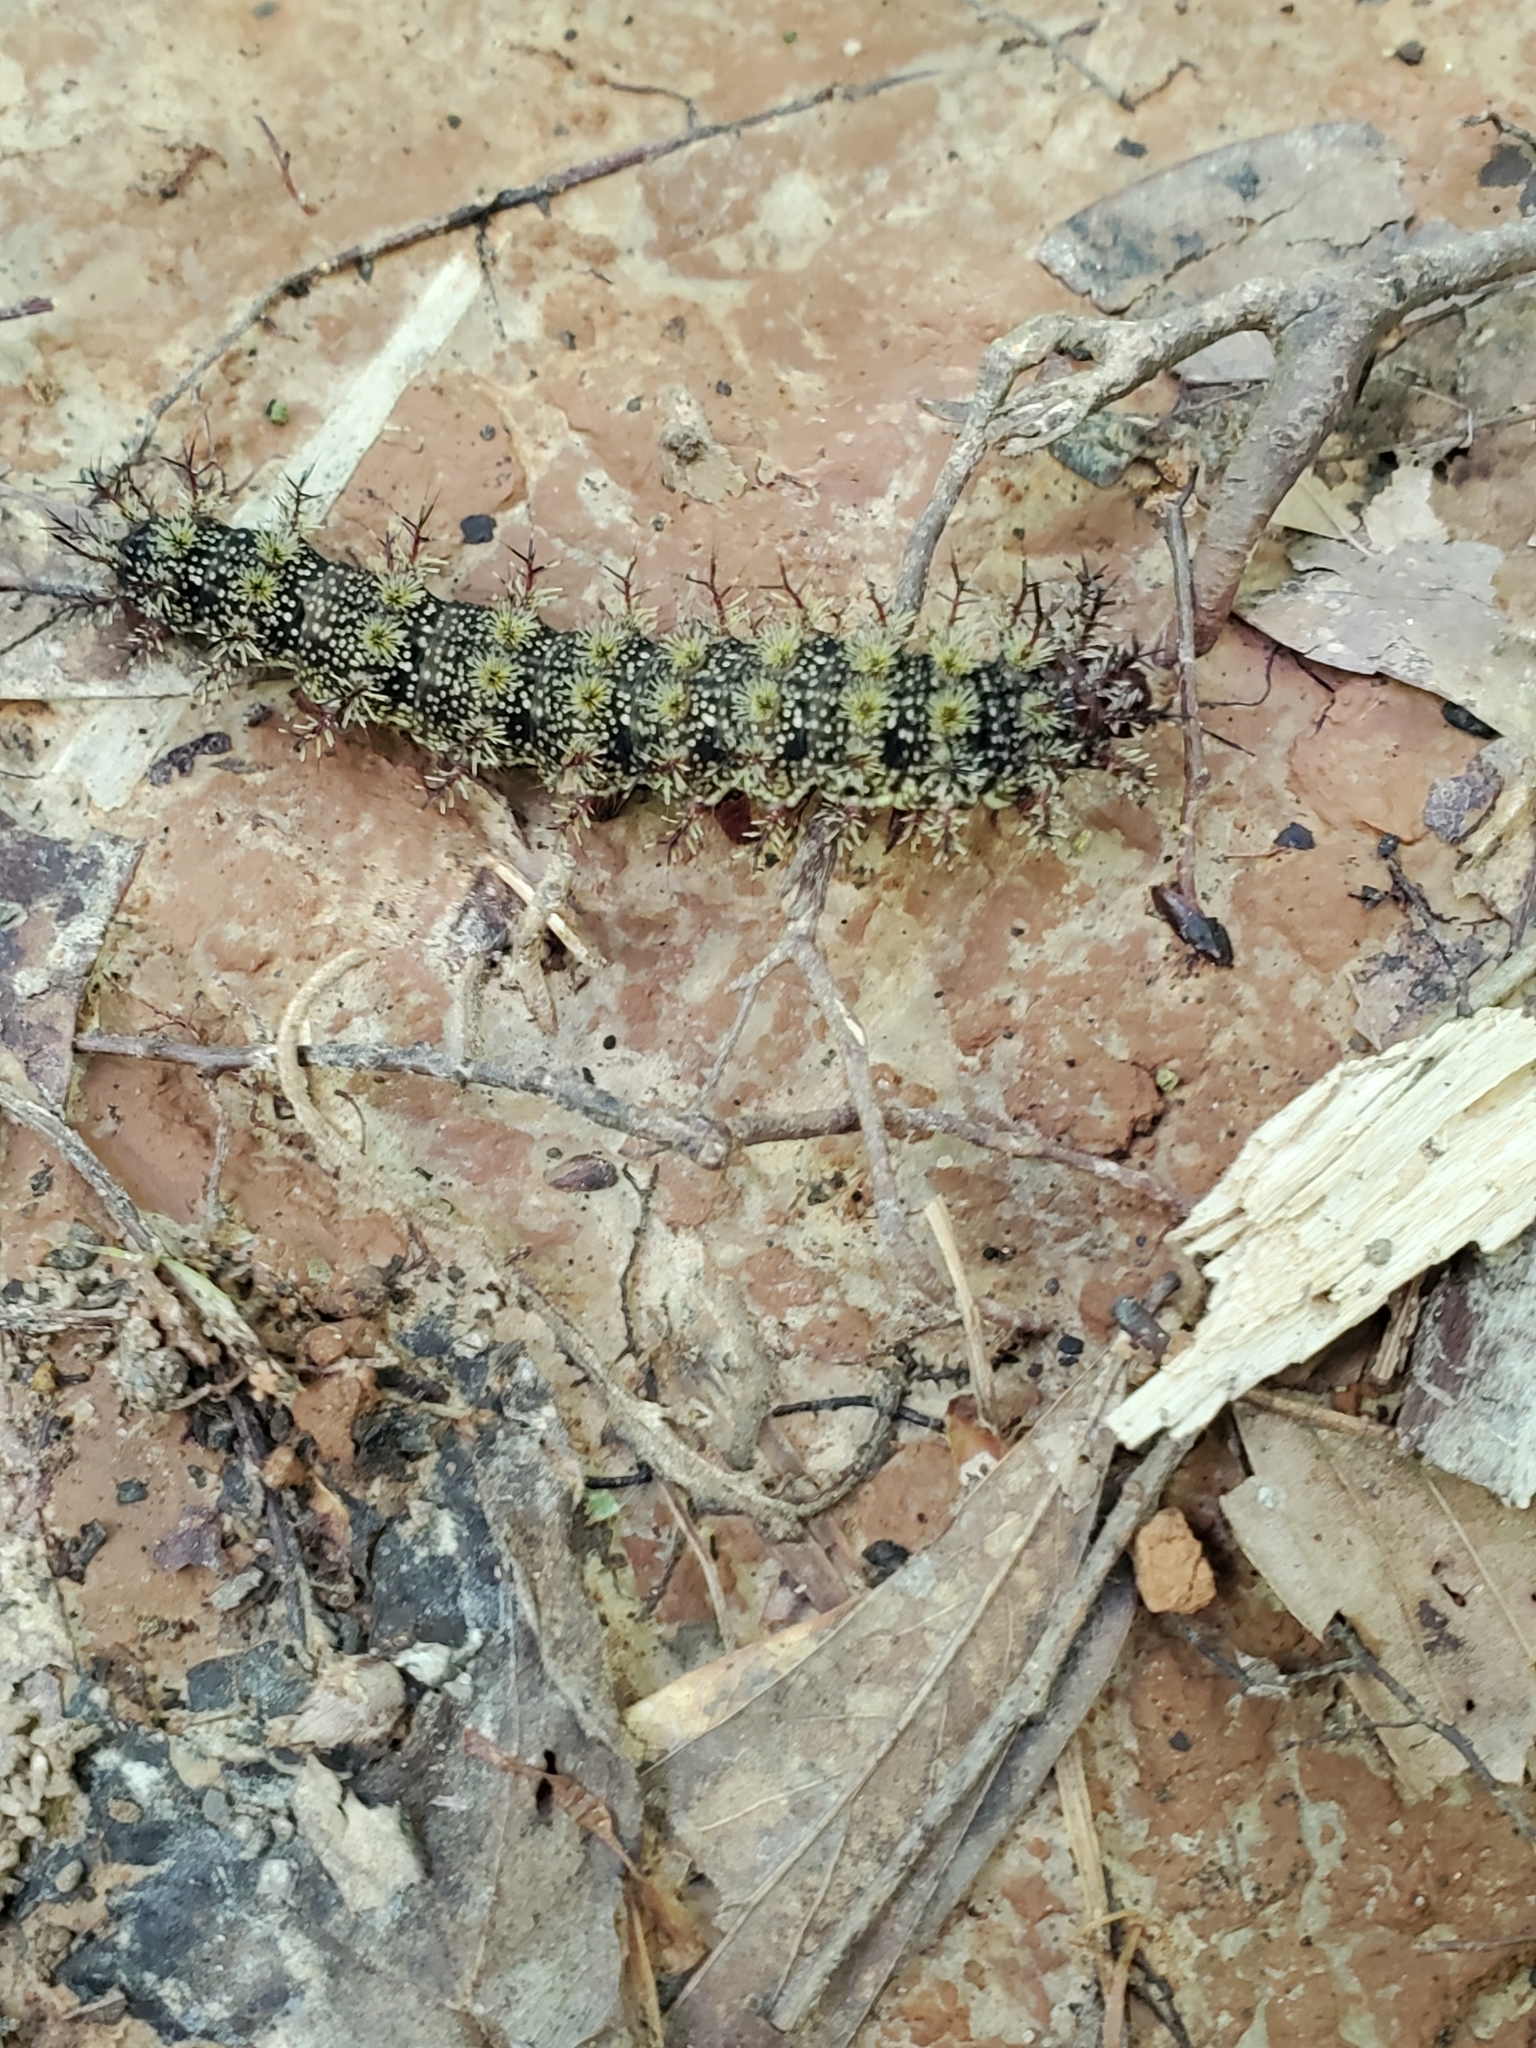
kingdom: Animalia
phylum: Arthropoda
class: Insecta
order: Lepidoptera
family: Saturniidae
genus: Hemileuca
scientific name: Hemileuca maia
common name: Eastern buckmoth
